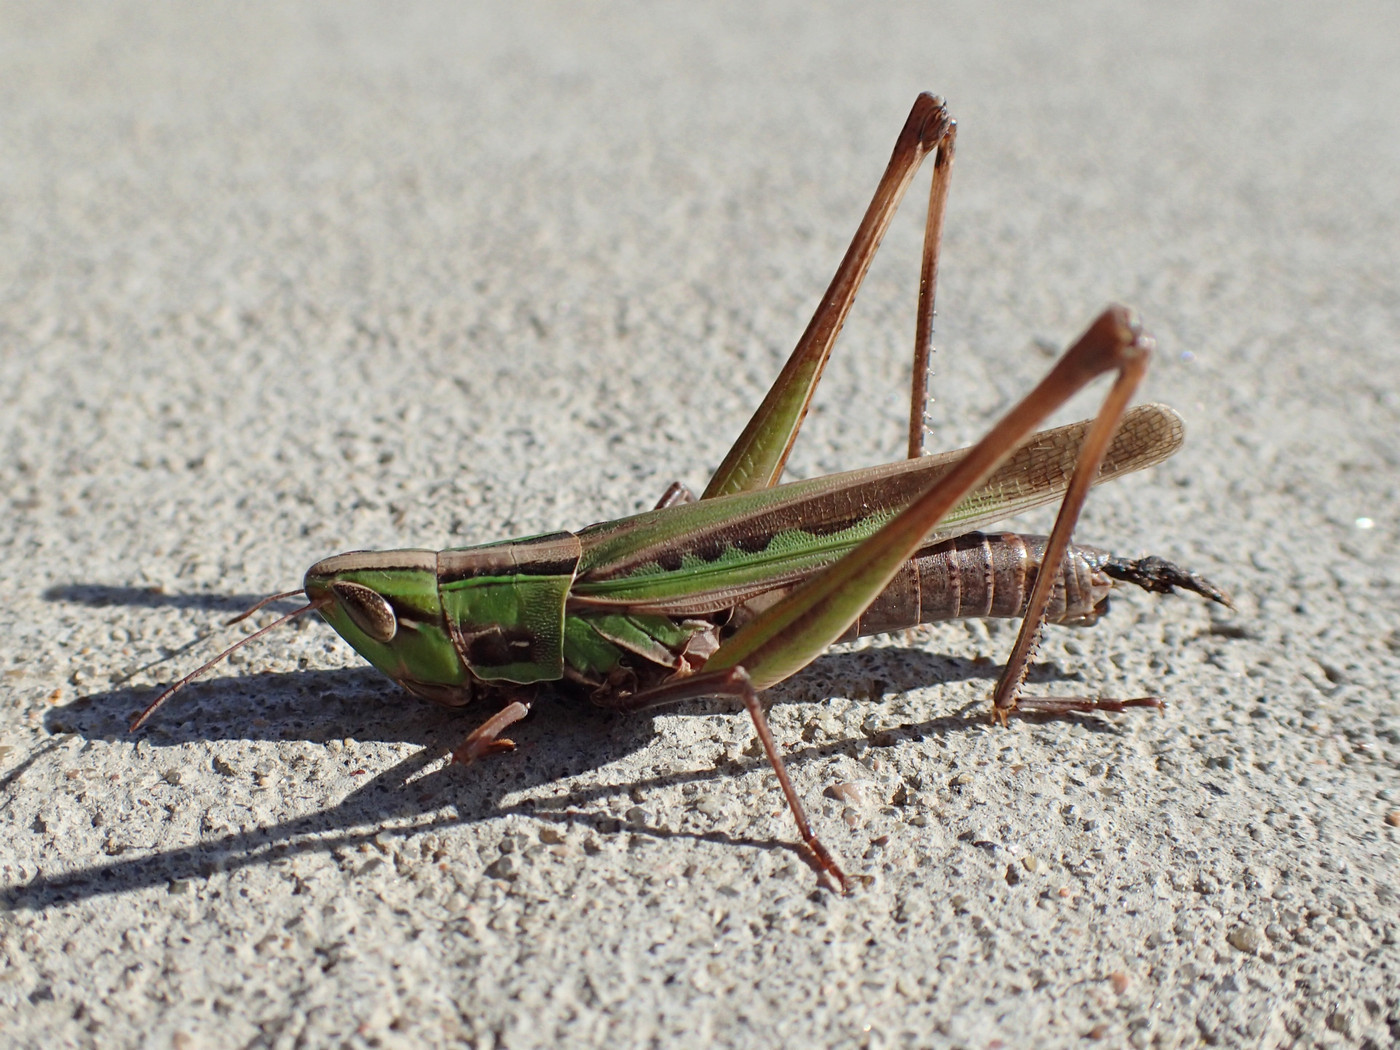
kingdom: Animalia
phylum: Arthropoda
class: Insecta
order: Orthoptera
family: Acrididae
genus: Syrbula
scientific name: Syrbula admirabilis
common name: Handsome grasshopper
